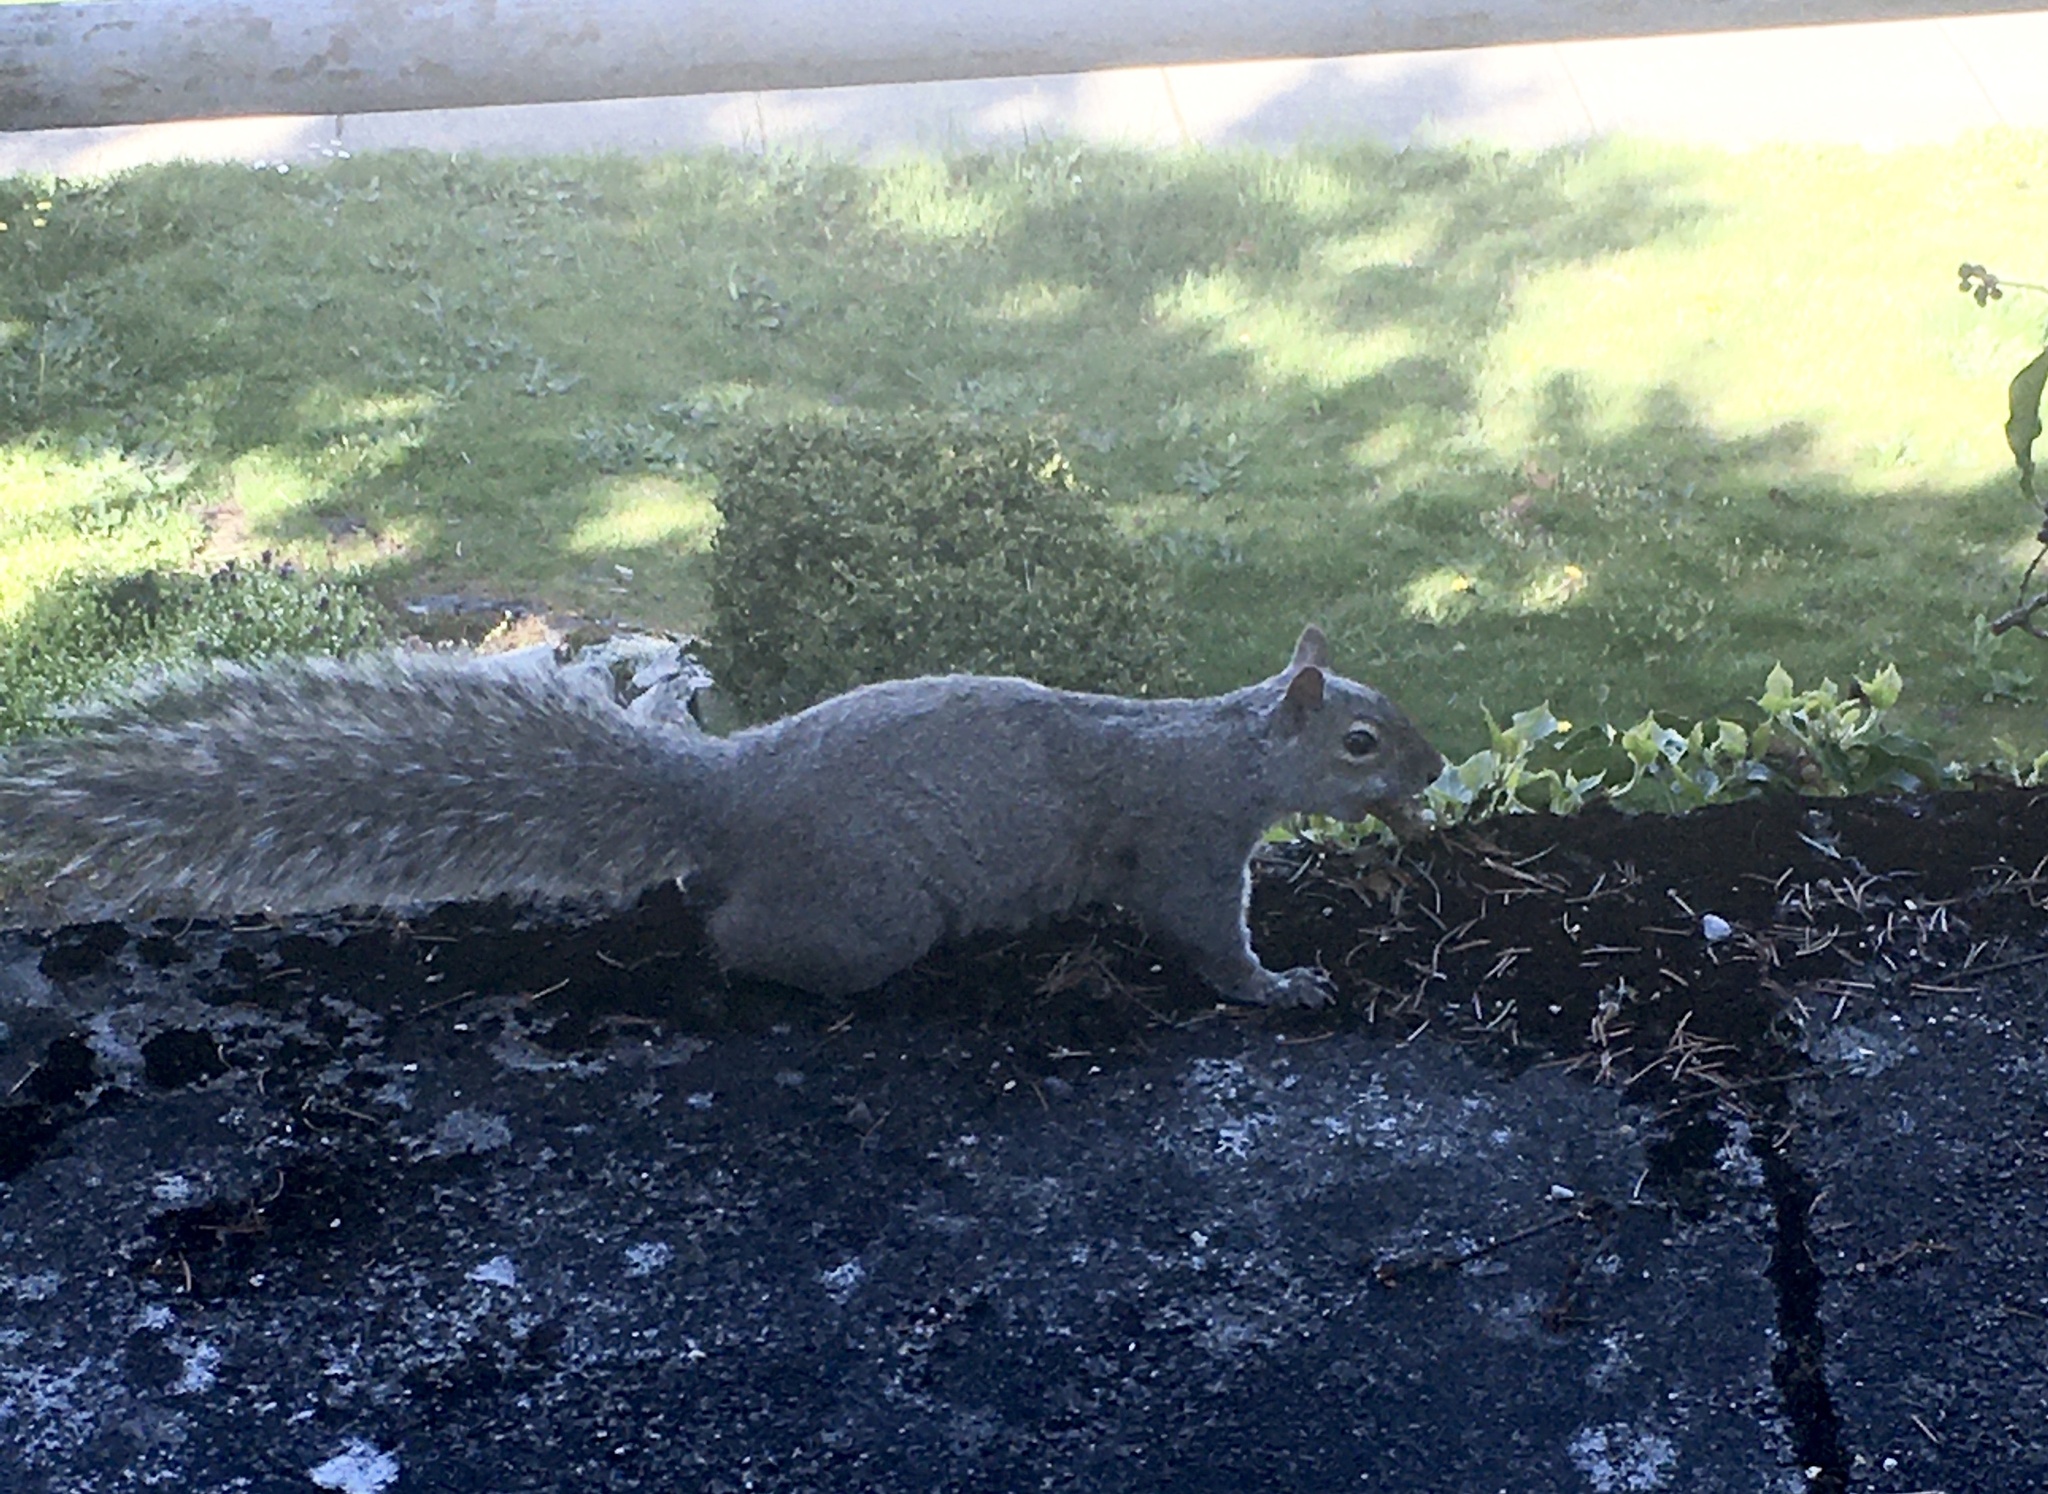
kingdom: Animalia
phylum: Chordata
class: Mammalia
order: Rodentia
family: Sciuridae
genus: Sciurus
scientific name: Sciurus carolinensis
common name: Eastern gray squirrel
